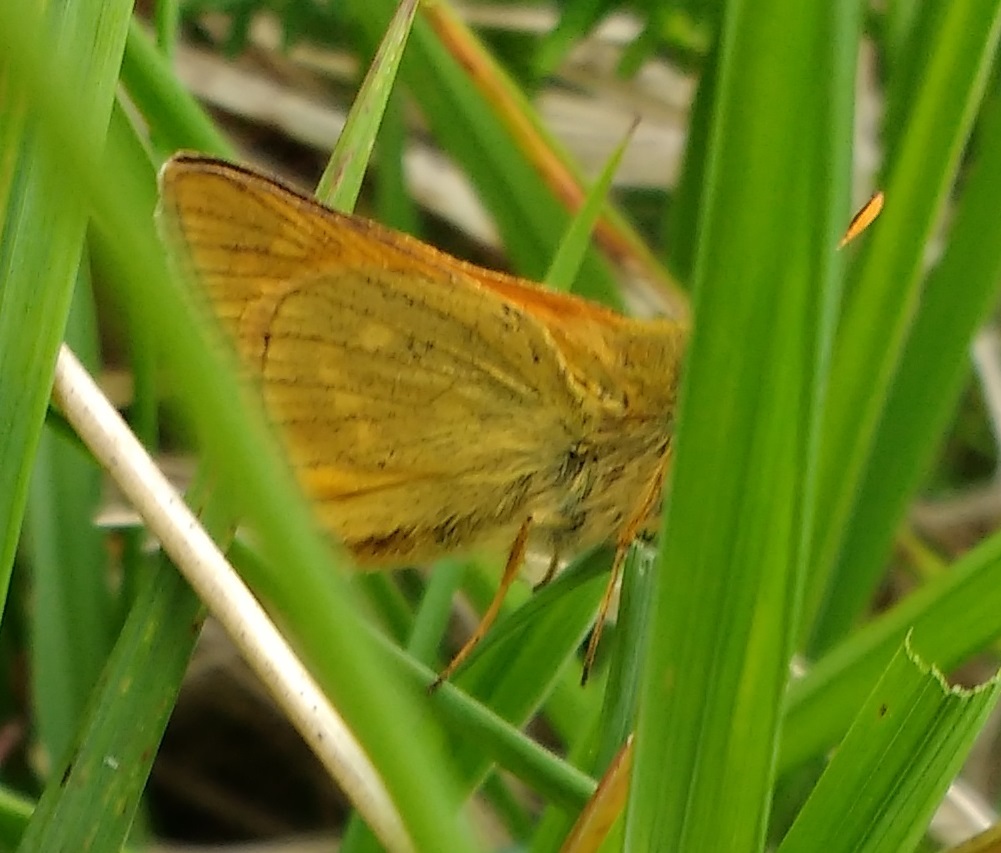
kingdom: Animalia
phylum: Arthropoda
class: Insecta
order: Lepidoptera
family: Hesperiidae
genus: Ochlodes
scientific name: Ochlodes venata
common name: Large skipper
